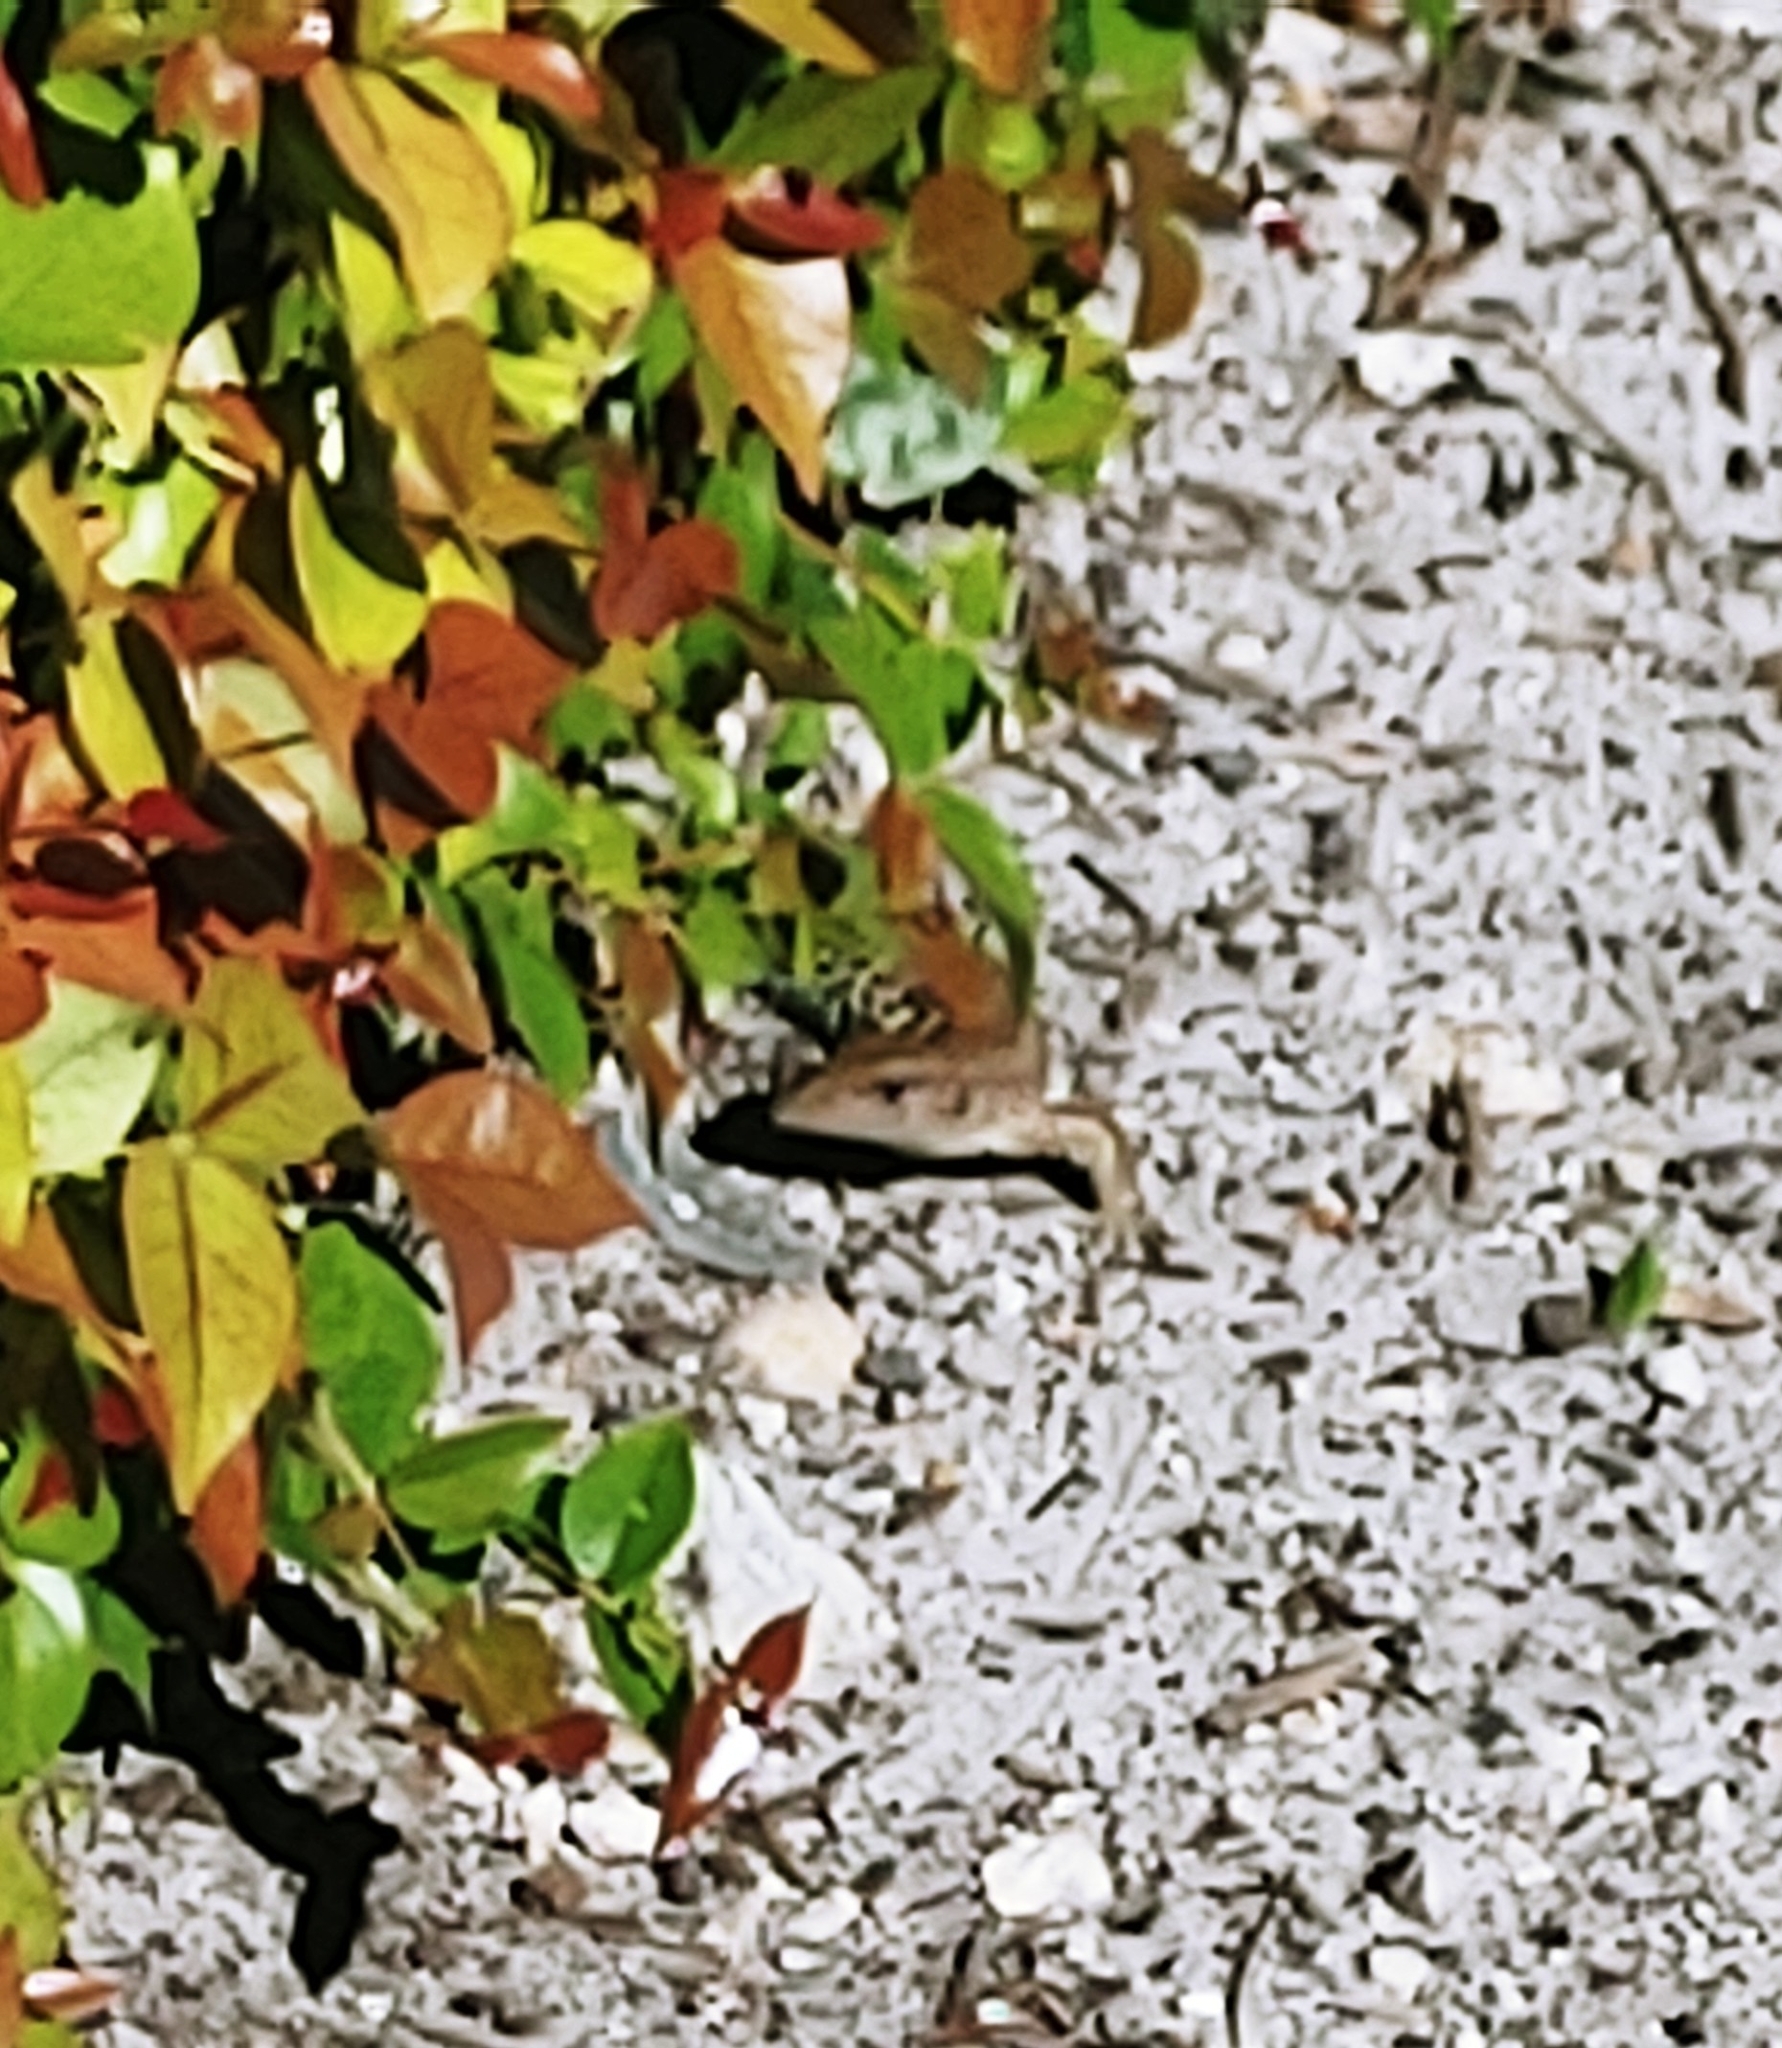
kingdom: Animalia
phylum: Chordata
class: Squamata
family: Teiidae
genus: Ameiva
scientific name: Ameiva ameiva
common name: Giant ameiva
